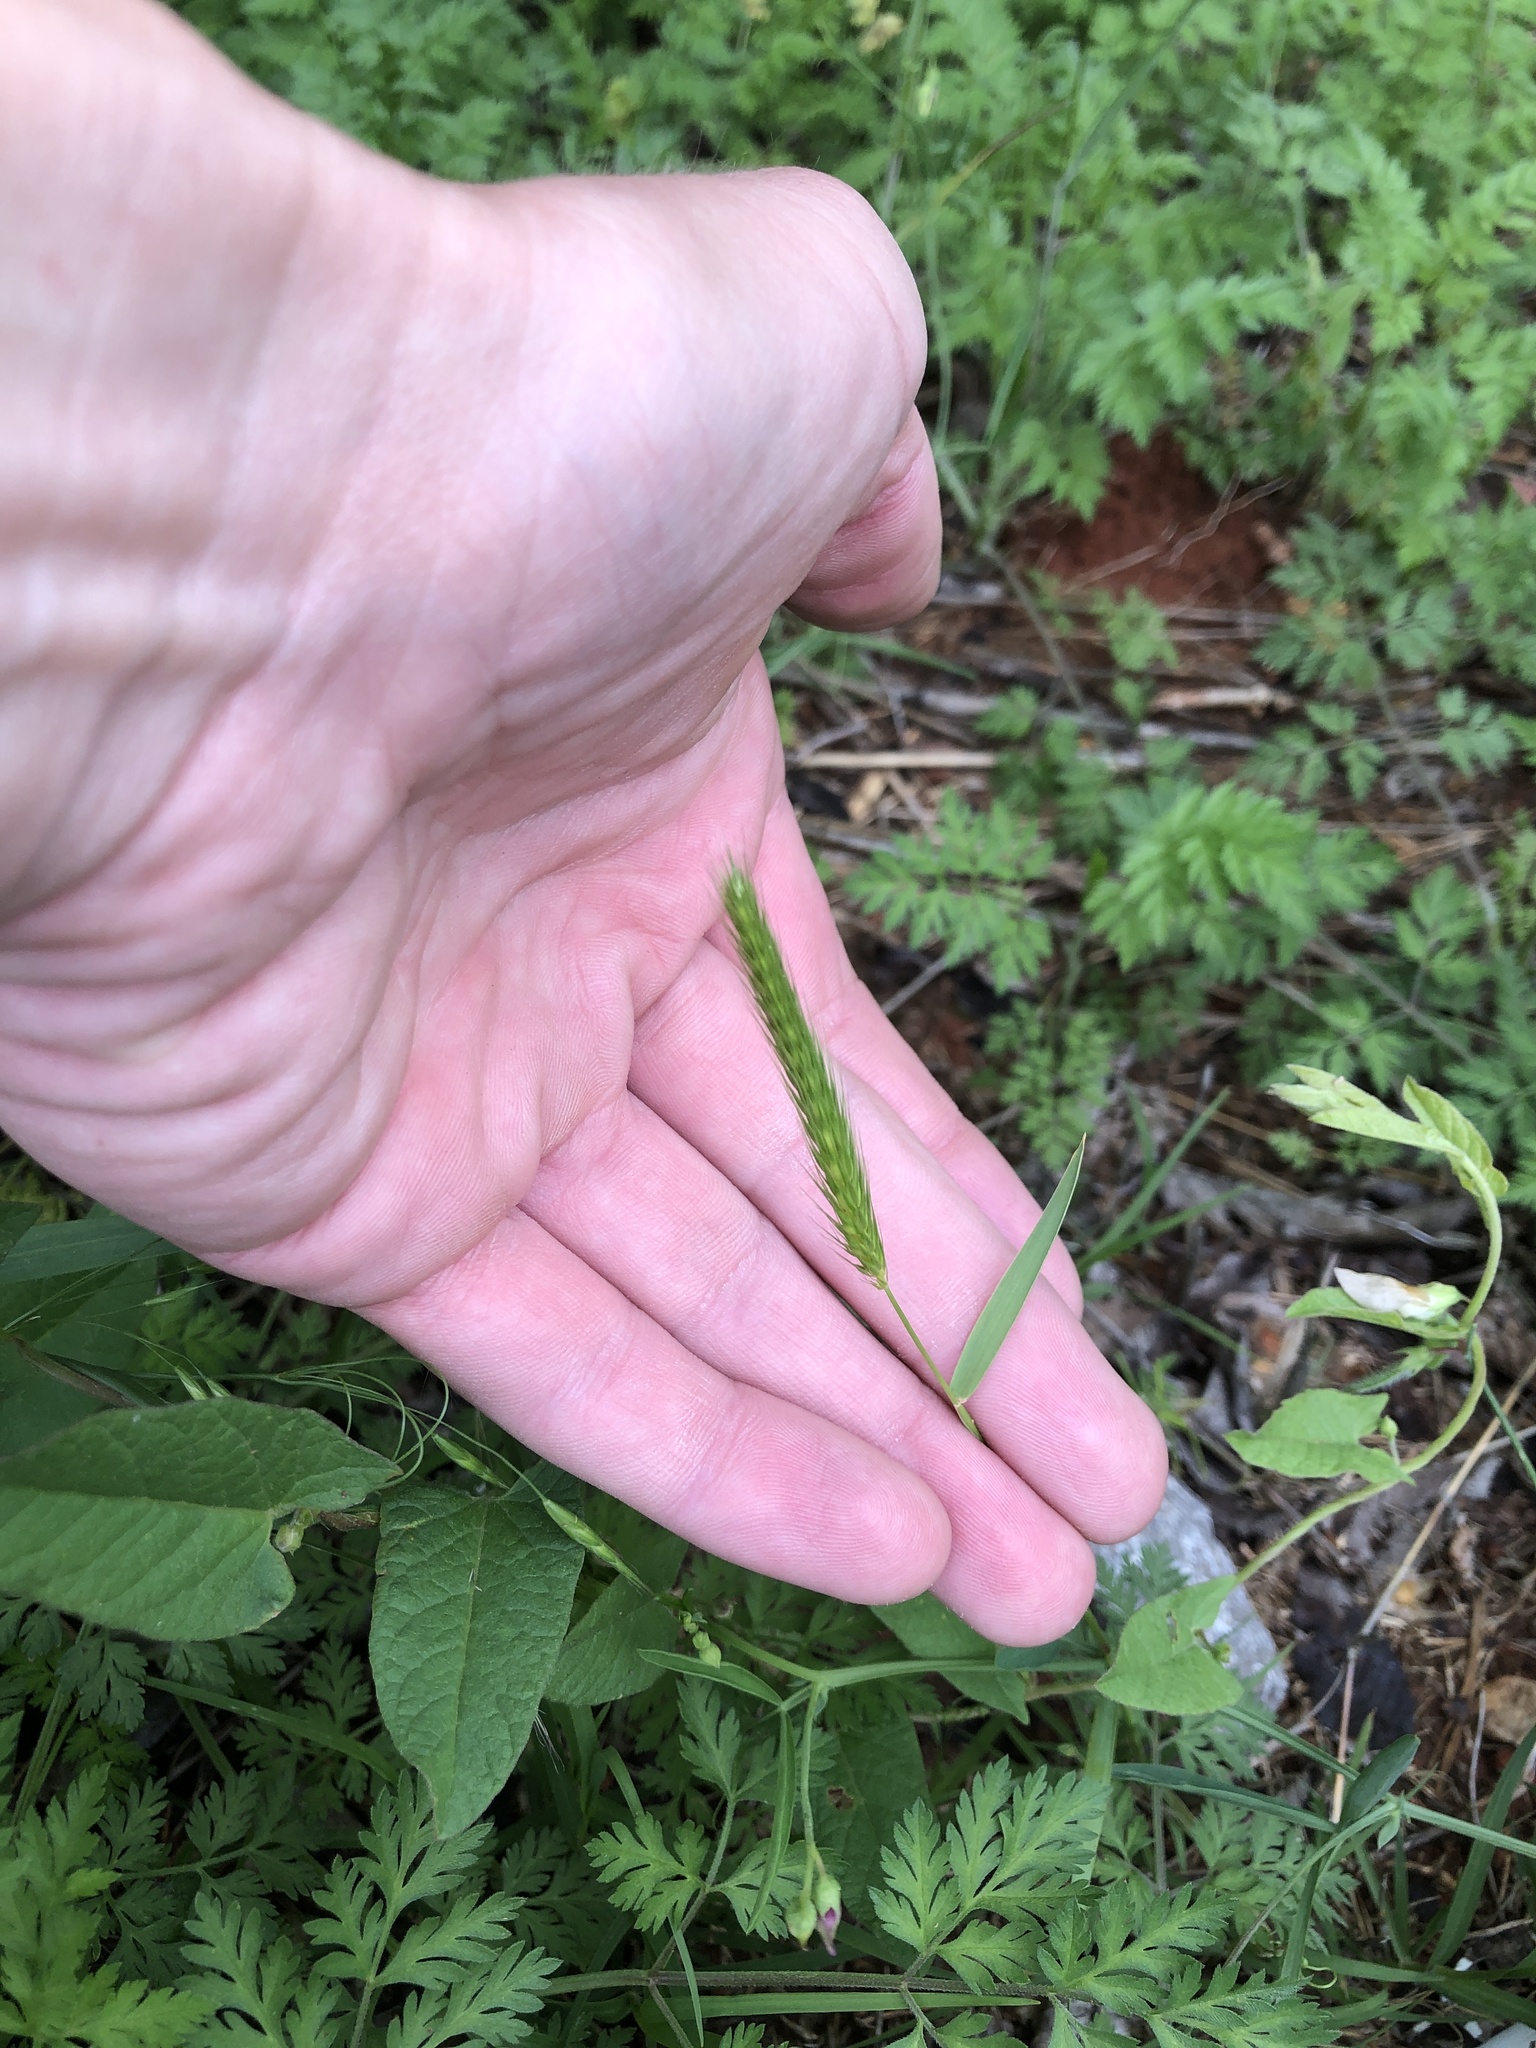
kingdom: Plantae
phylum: Tracheophyta
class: Liliopsida
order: Poales
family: Poaceae
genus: Hordeum
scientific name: Hordeum pusillum
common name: Little barley
